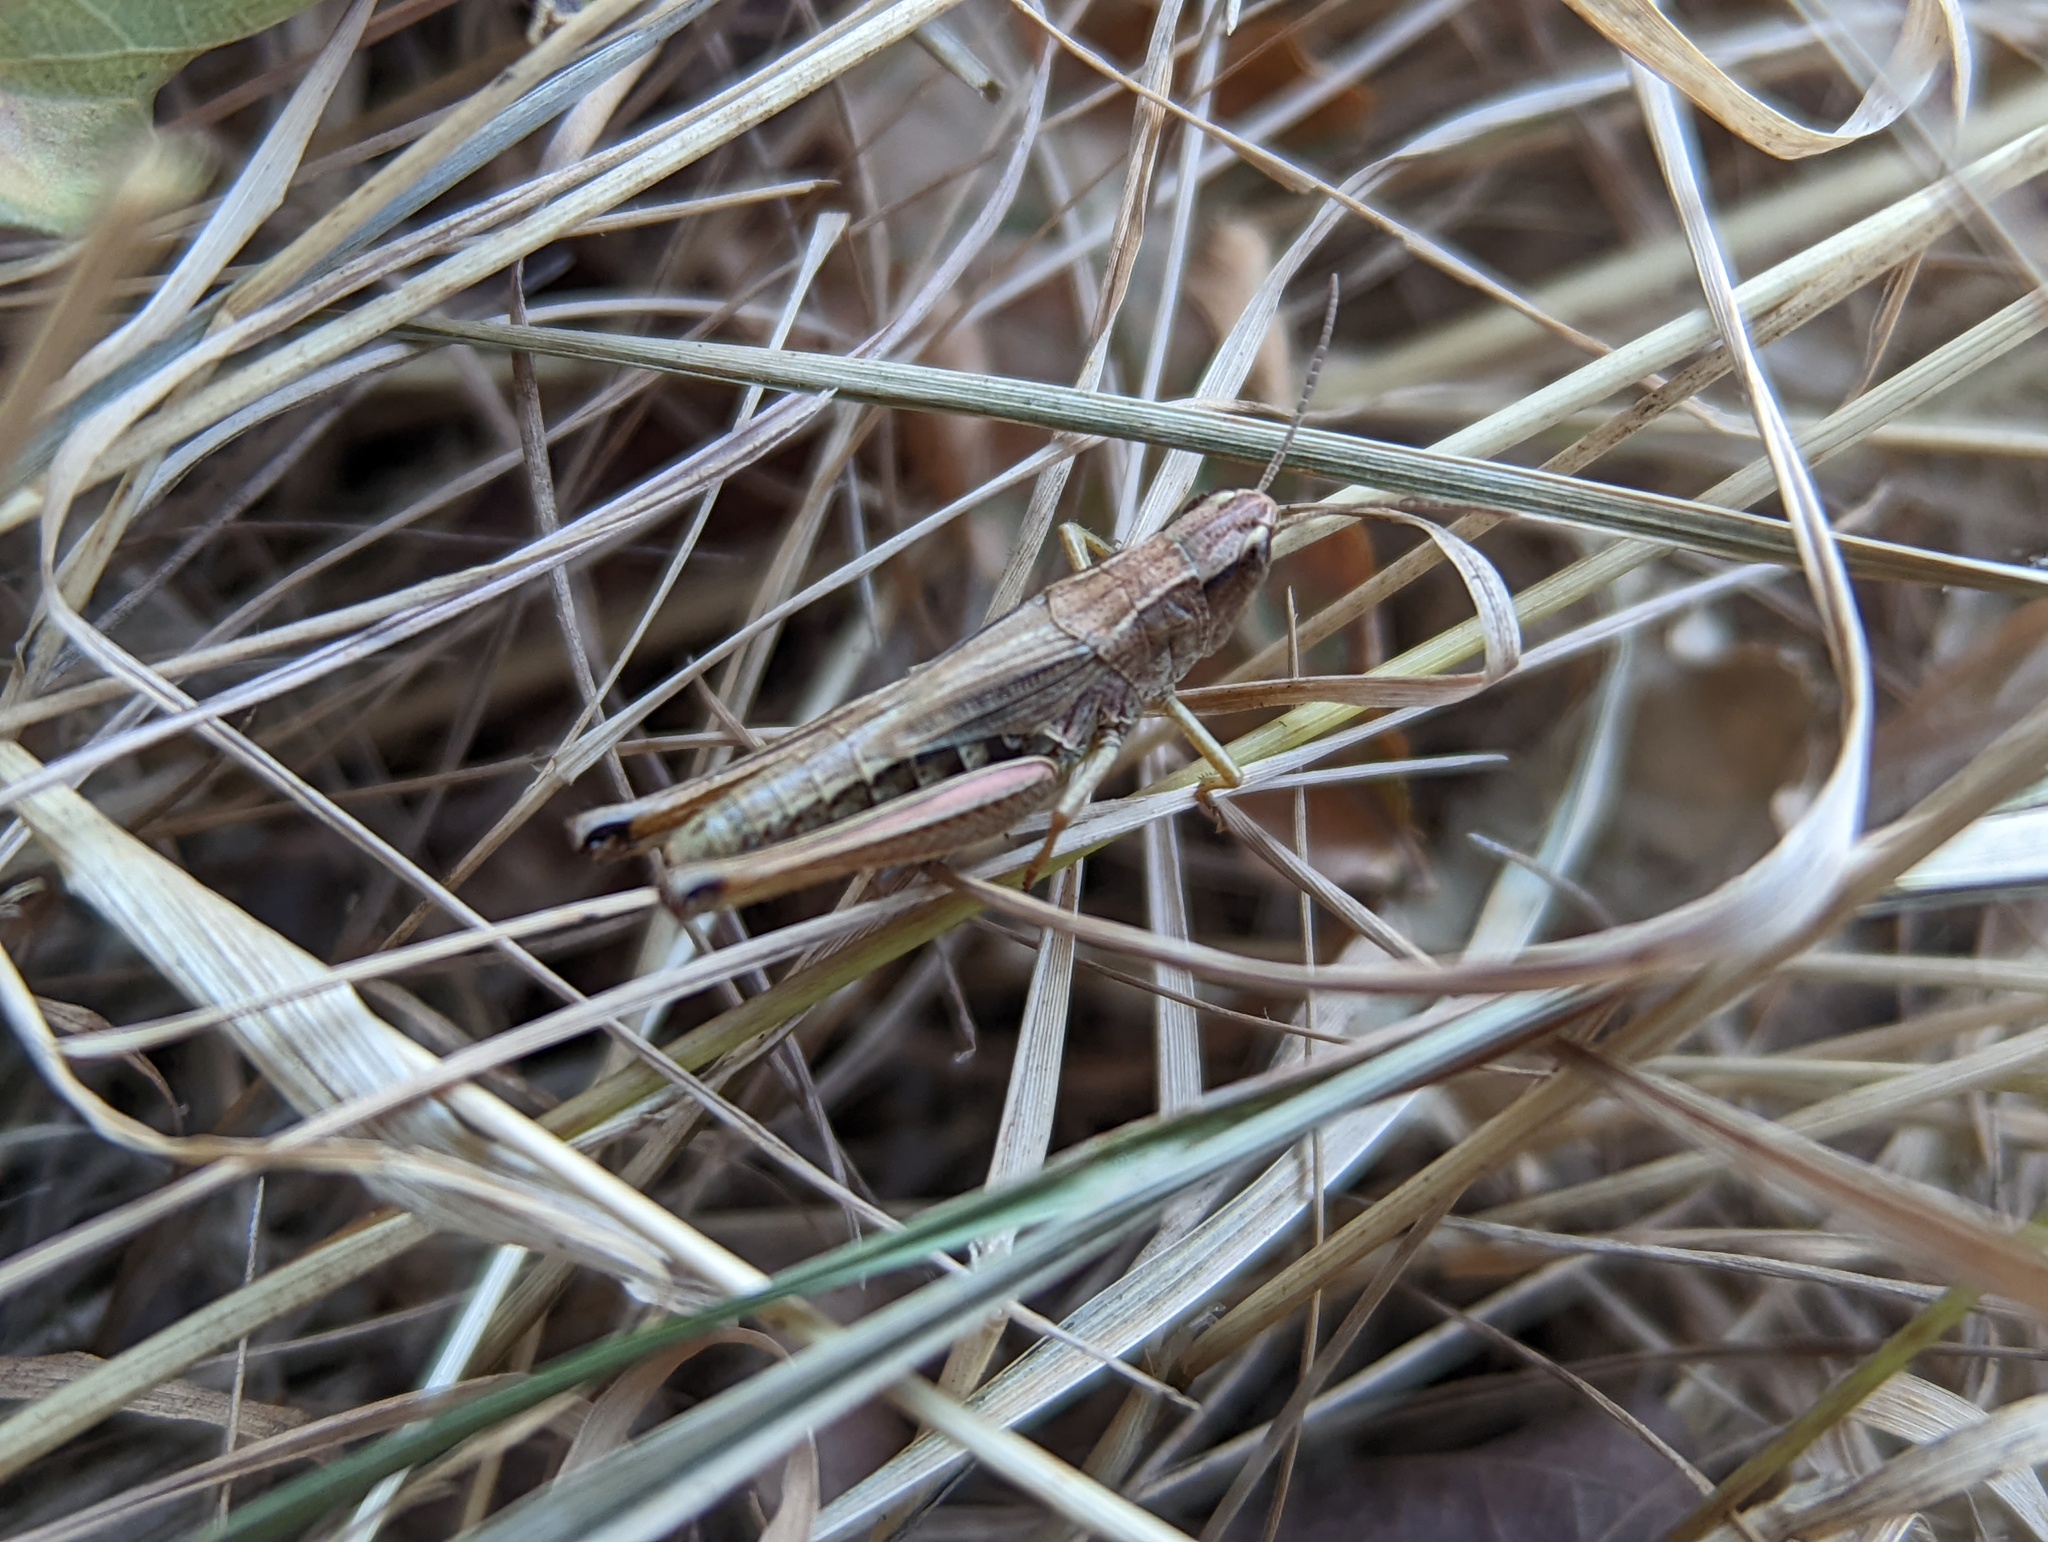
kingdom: Animalia
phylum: Arthropoda
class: Insecta
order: Orthoptera
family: Acrididae
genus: Pseudochorthippus
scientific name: Pseudochorthippus parallelus
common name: Meadow grasshopper
